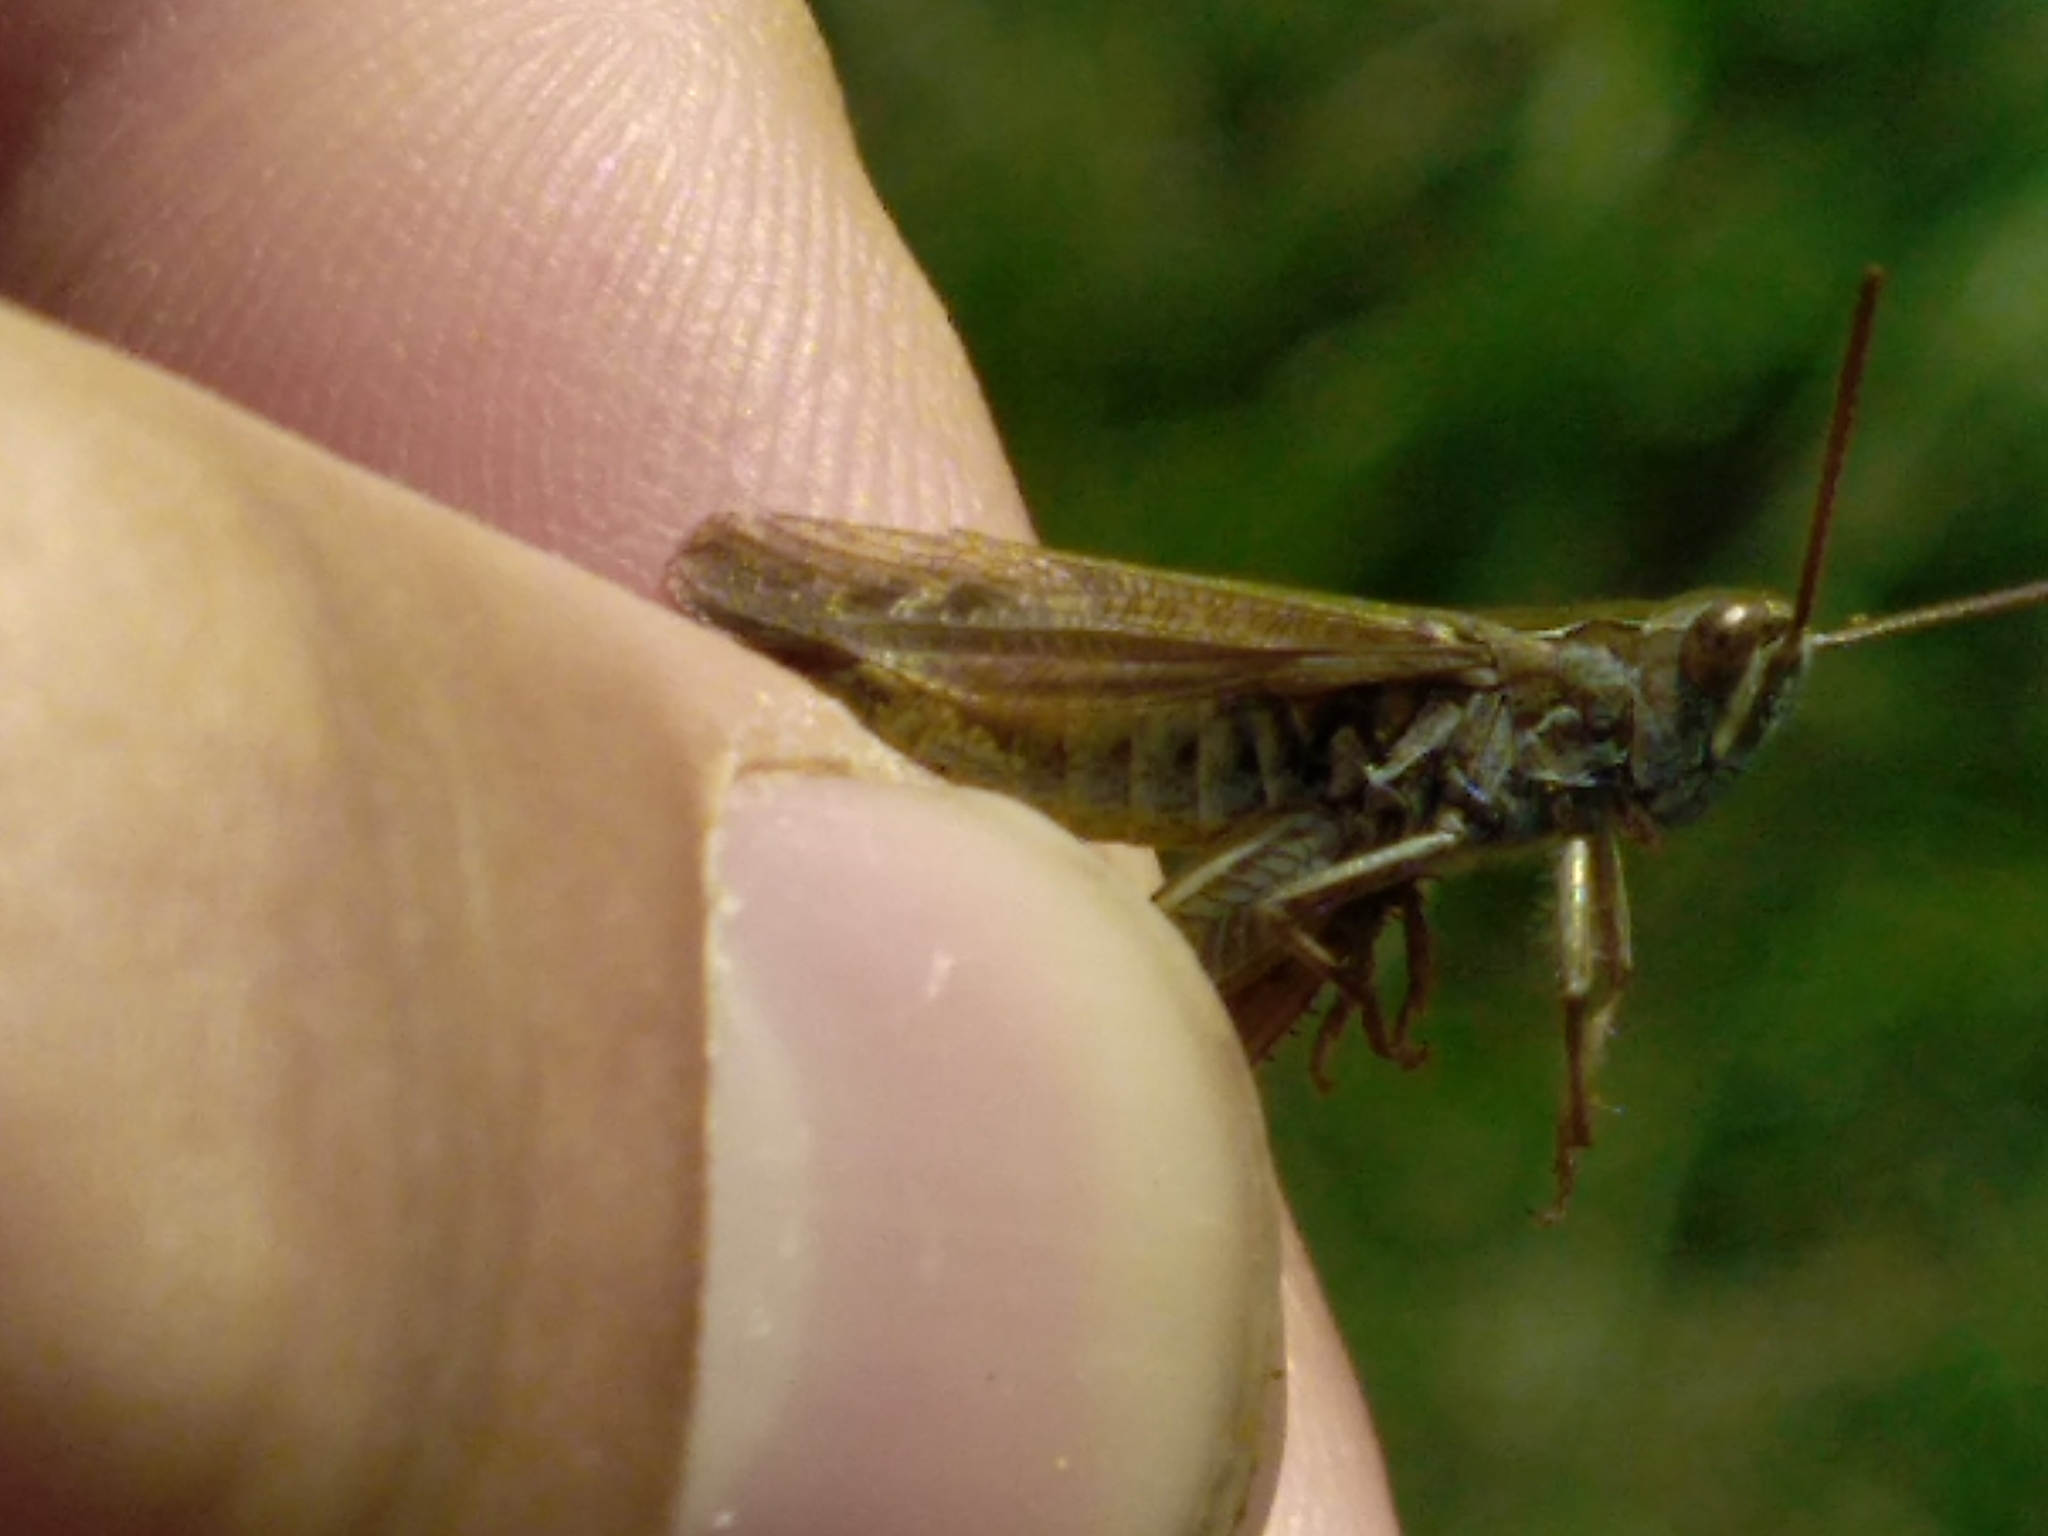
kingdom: Animalia
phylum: Arthropoda
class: Insecta
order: Orthoptera
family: Acrididae
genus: Chorthippus
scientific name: Chorthippus biguttulus
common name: Bow-winged grasshopper
